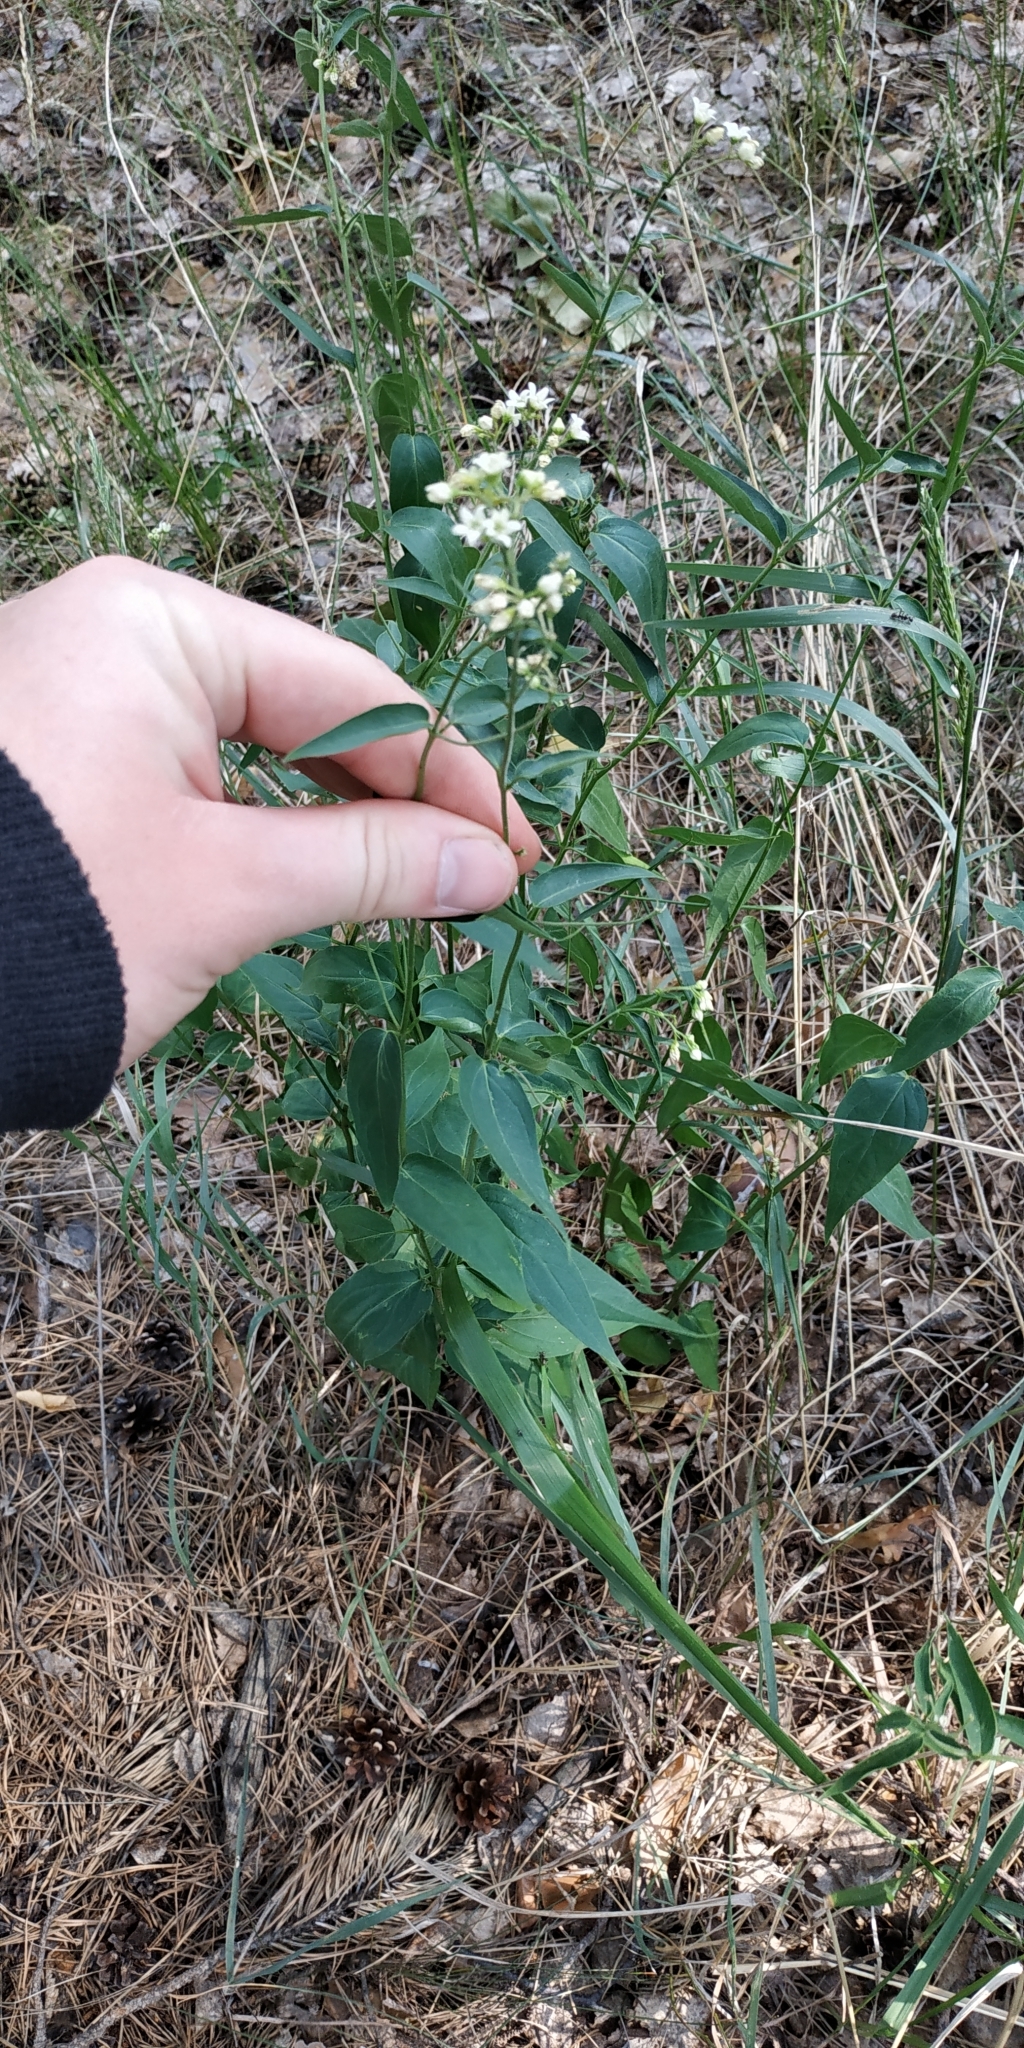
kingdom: Plantae
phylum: Tracheophyta
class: Magnoliopsida
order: Gentianales
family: Apocynaceae
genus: Vincetoxicum
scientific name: Vincetoxicum hirundinaria
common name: White swallowwort
